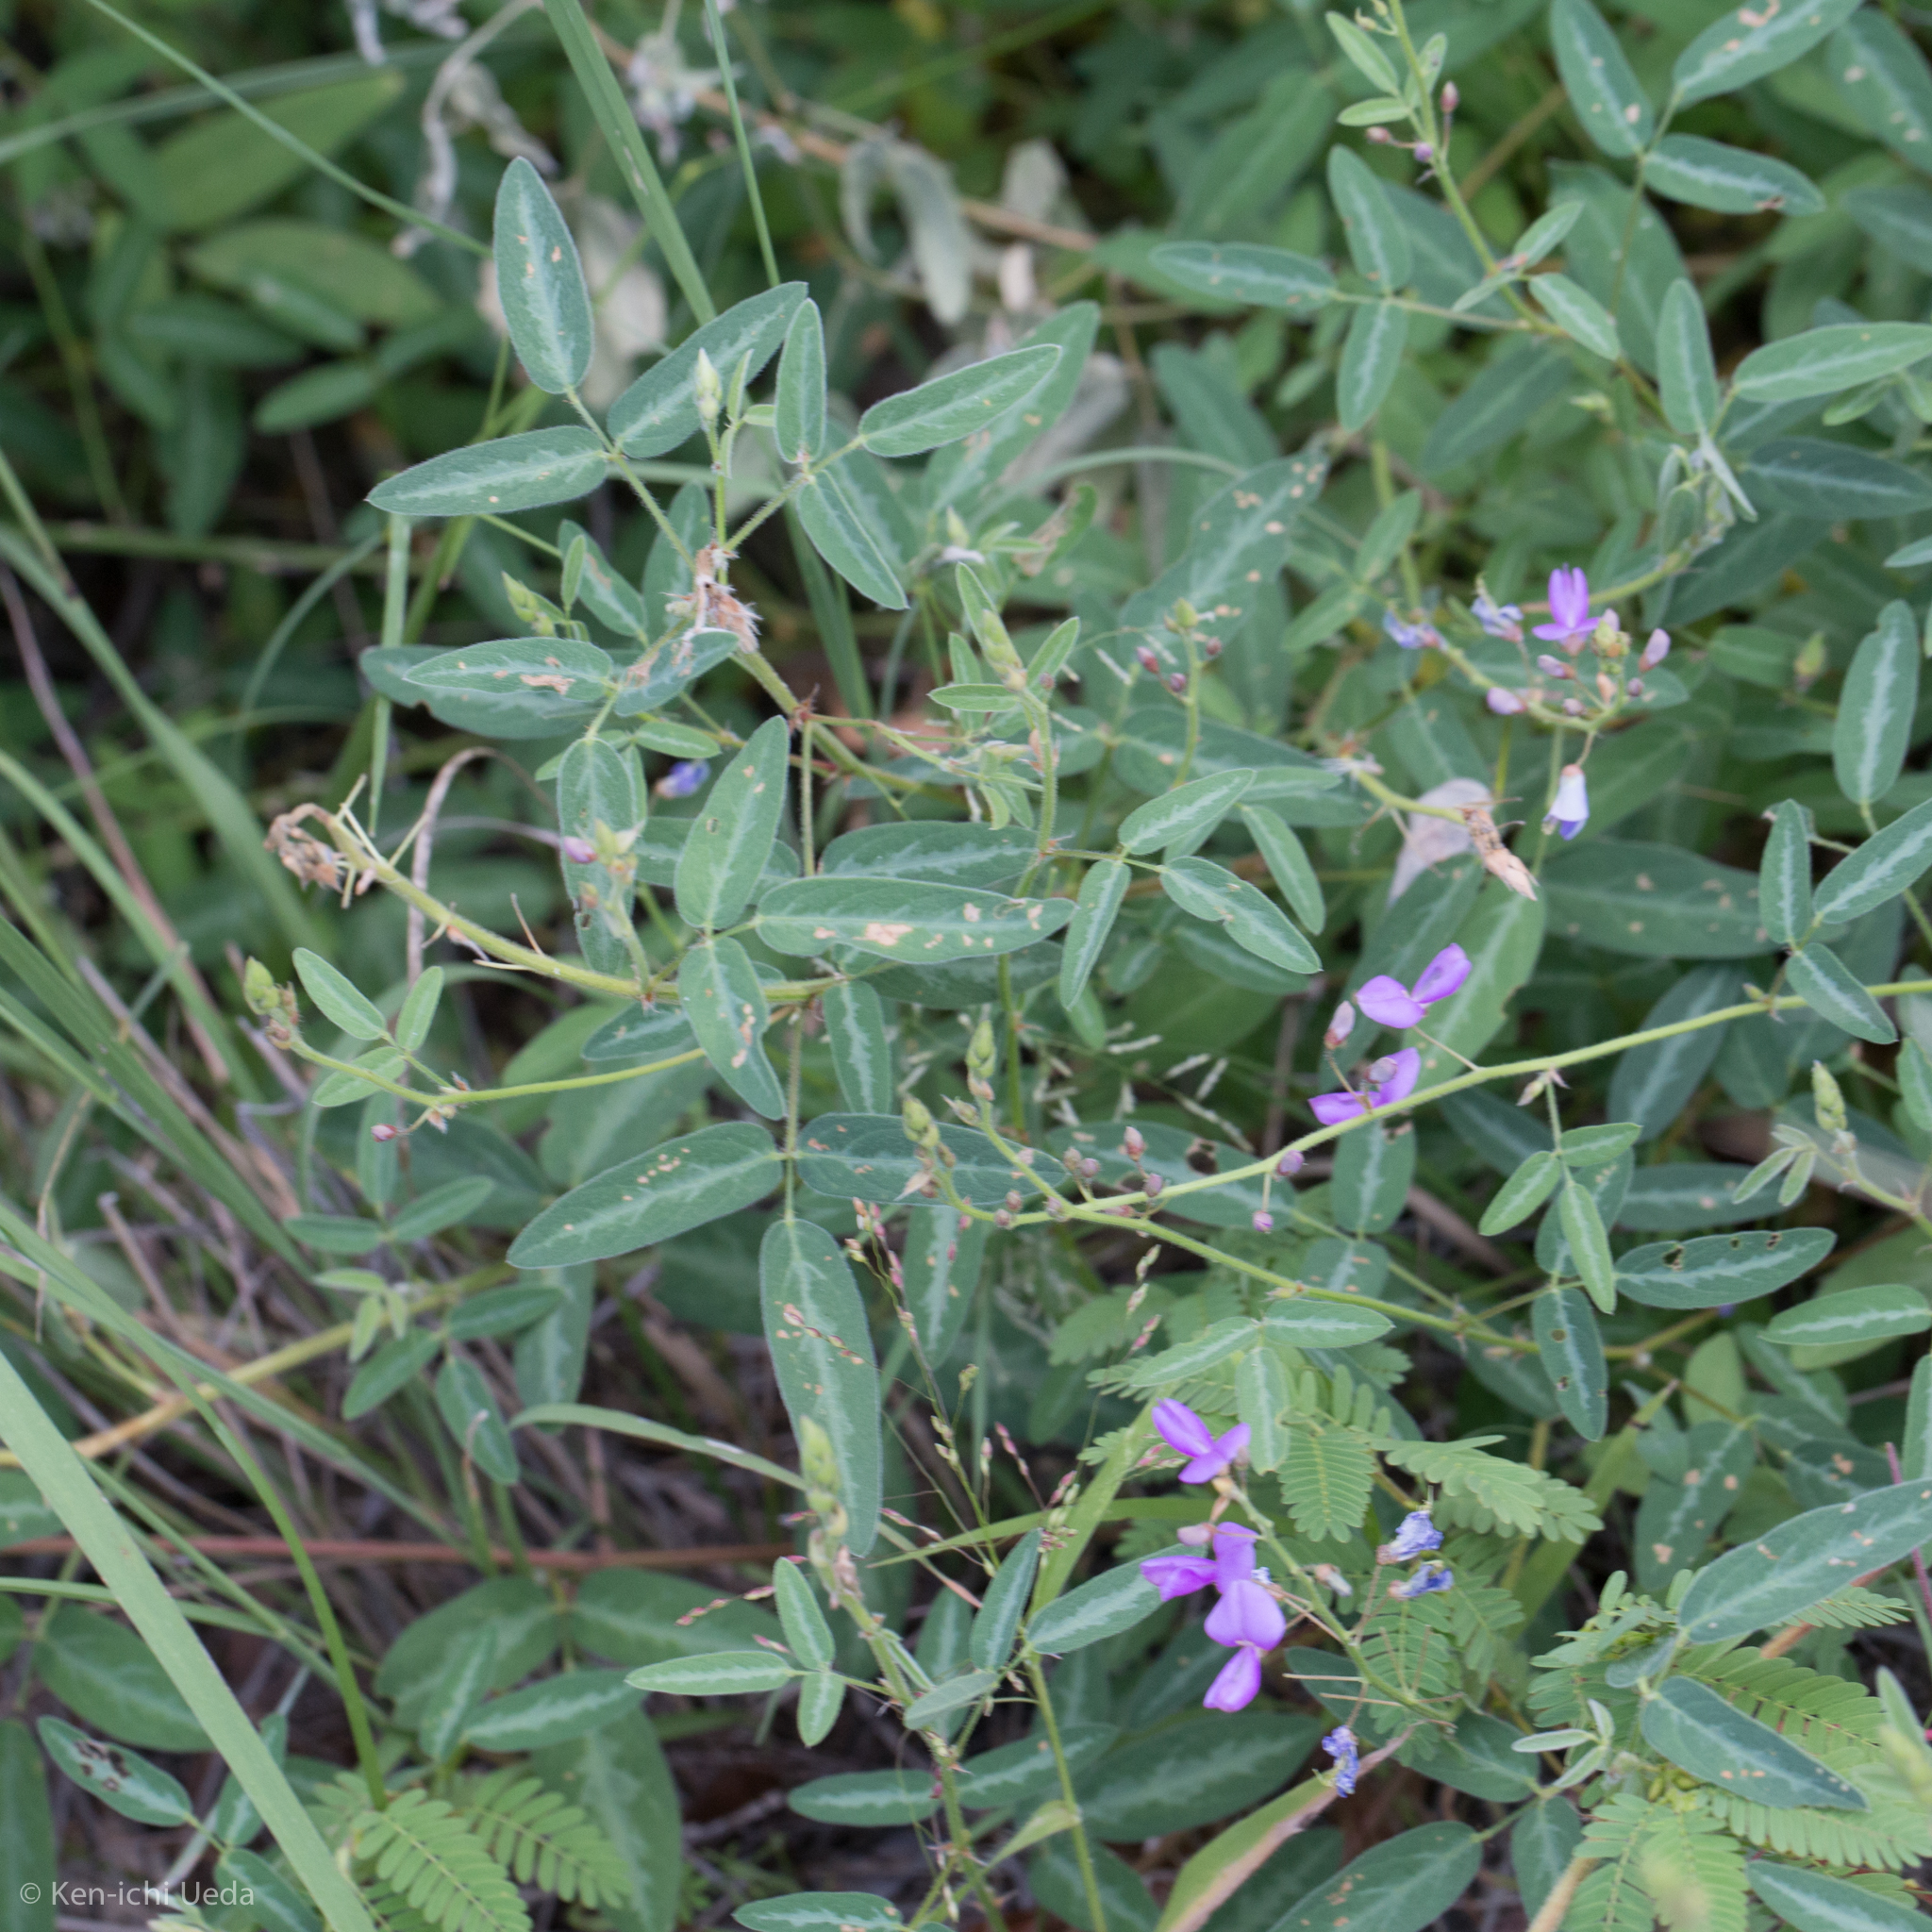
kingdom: Plantae
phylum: Tracheophyta
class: Magnoliopsida
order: Fabales
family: Fabaceae
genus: Desmodium
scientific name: Desmodium batocaulon
